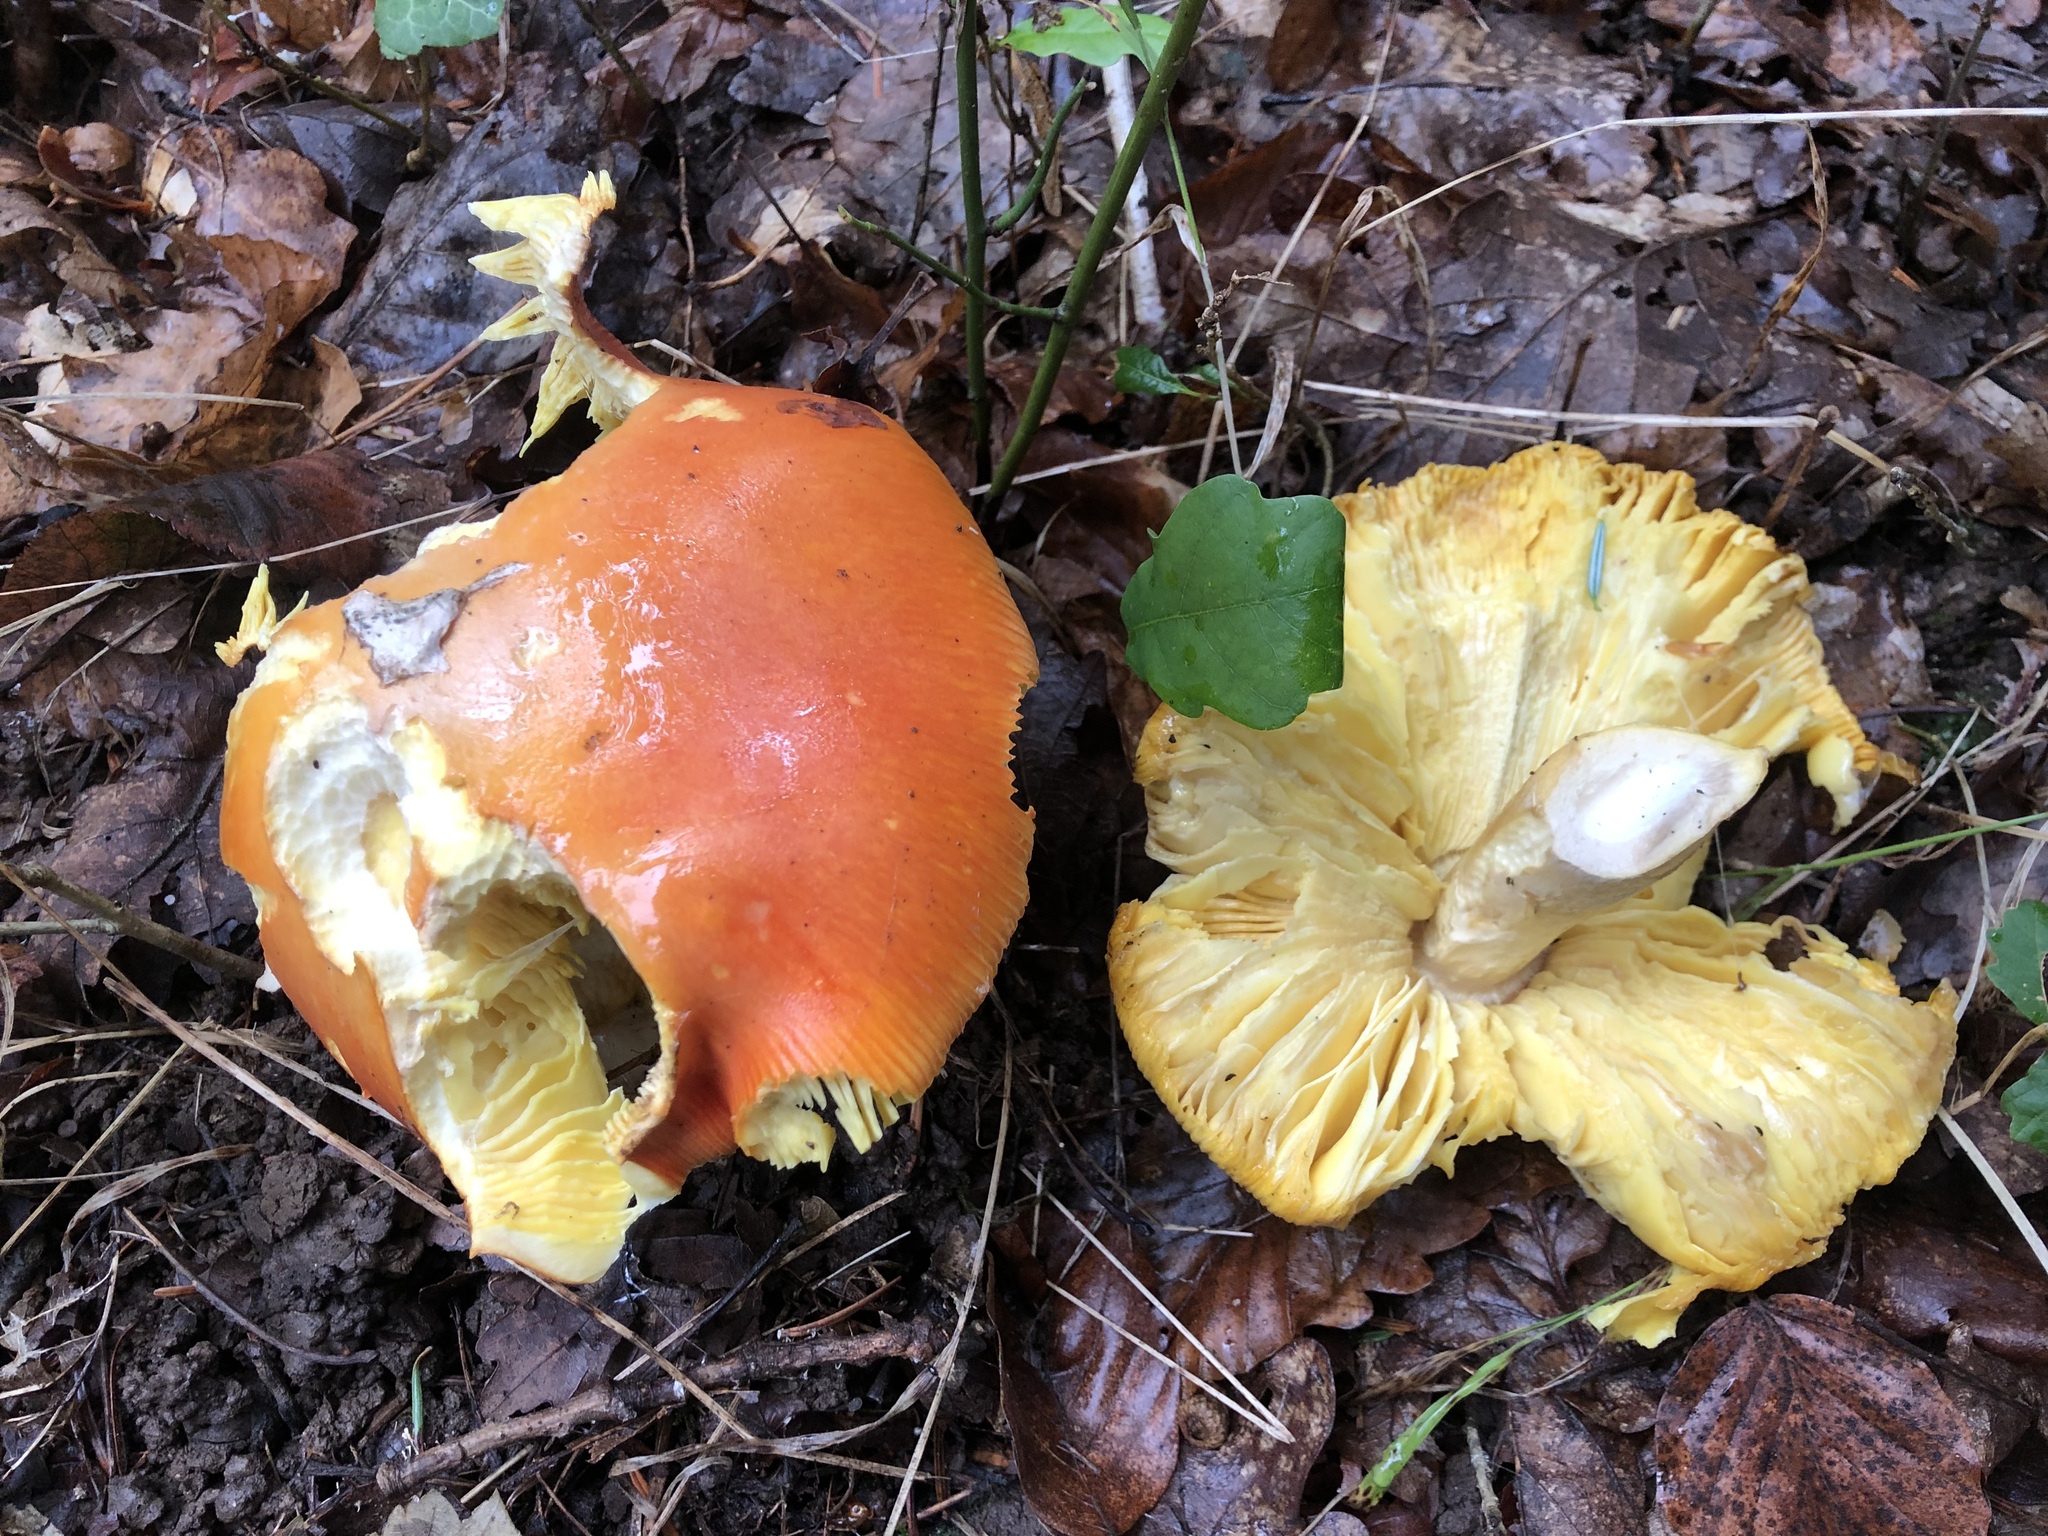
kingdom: Fungi
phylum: Basidiomycota
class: Agaricomycetes
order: Agaricales
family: Amanitaceae
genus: Amanita
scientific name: Amanita caesarea
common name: Caesar's amanita
